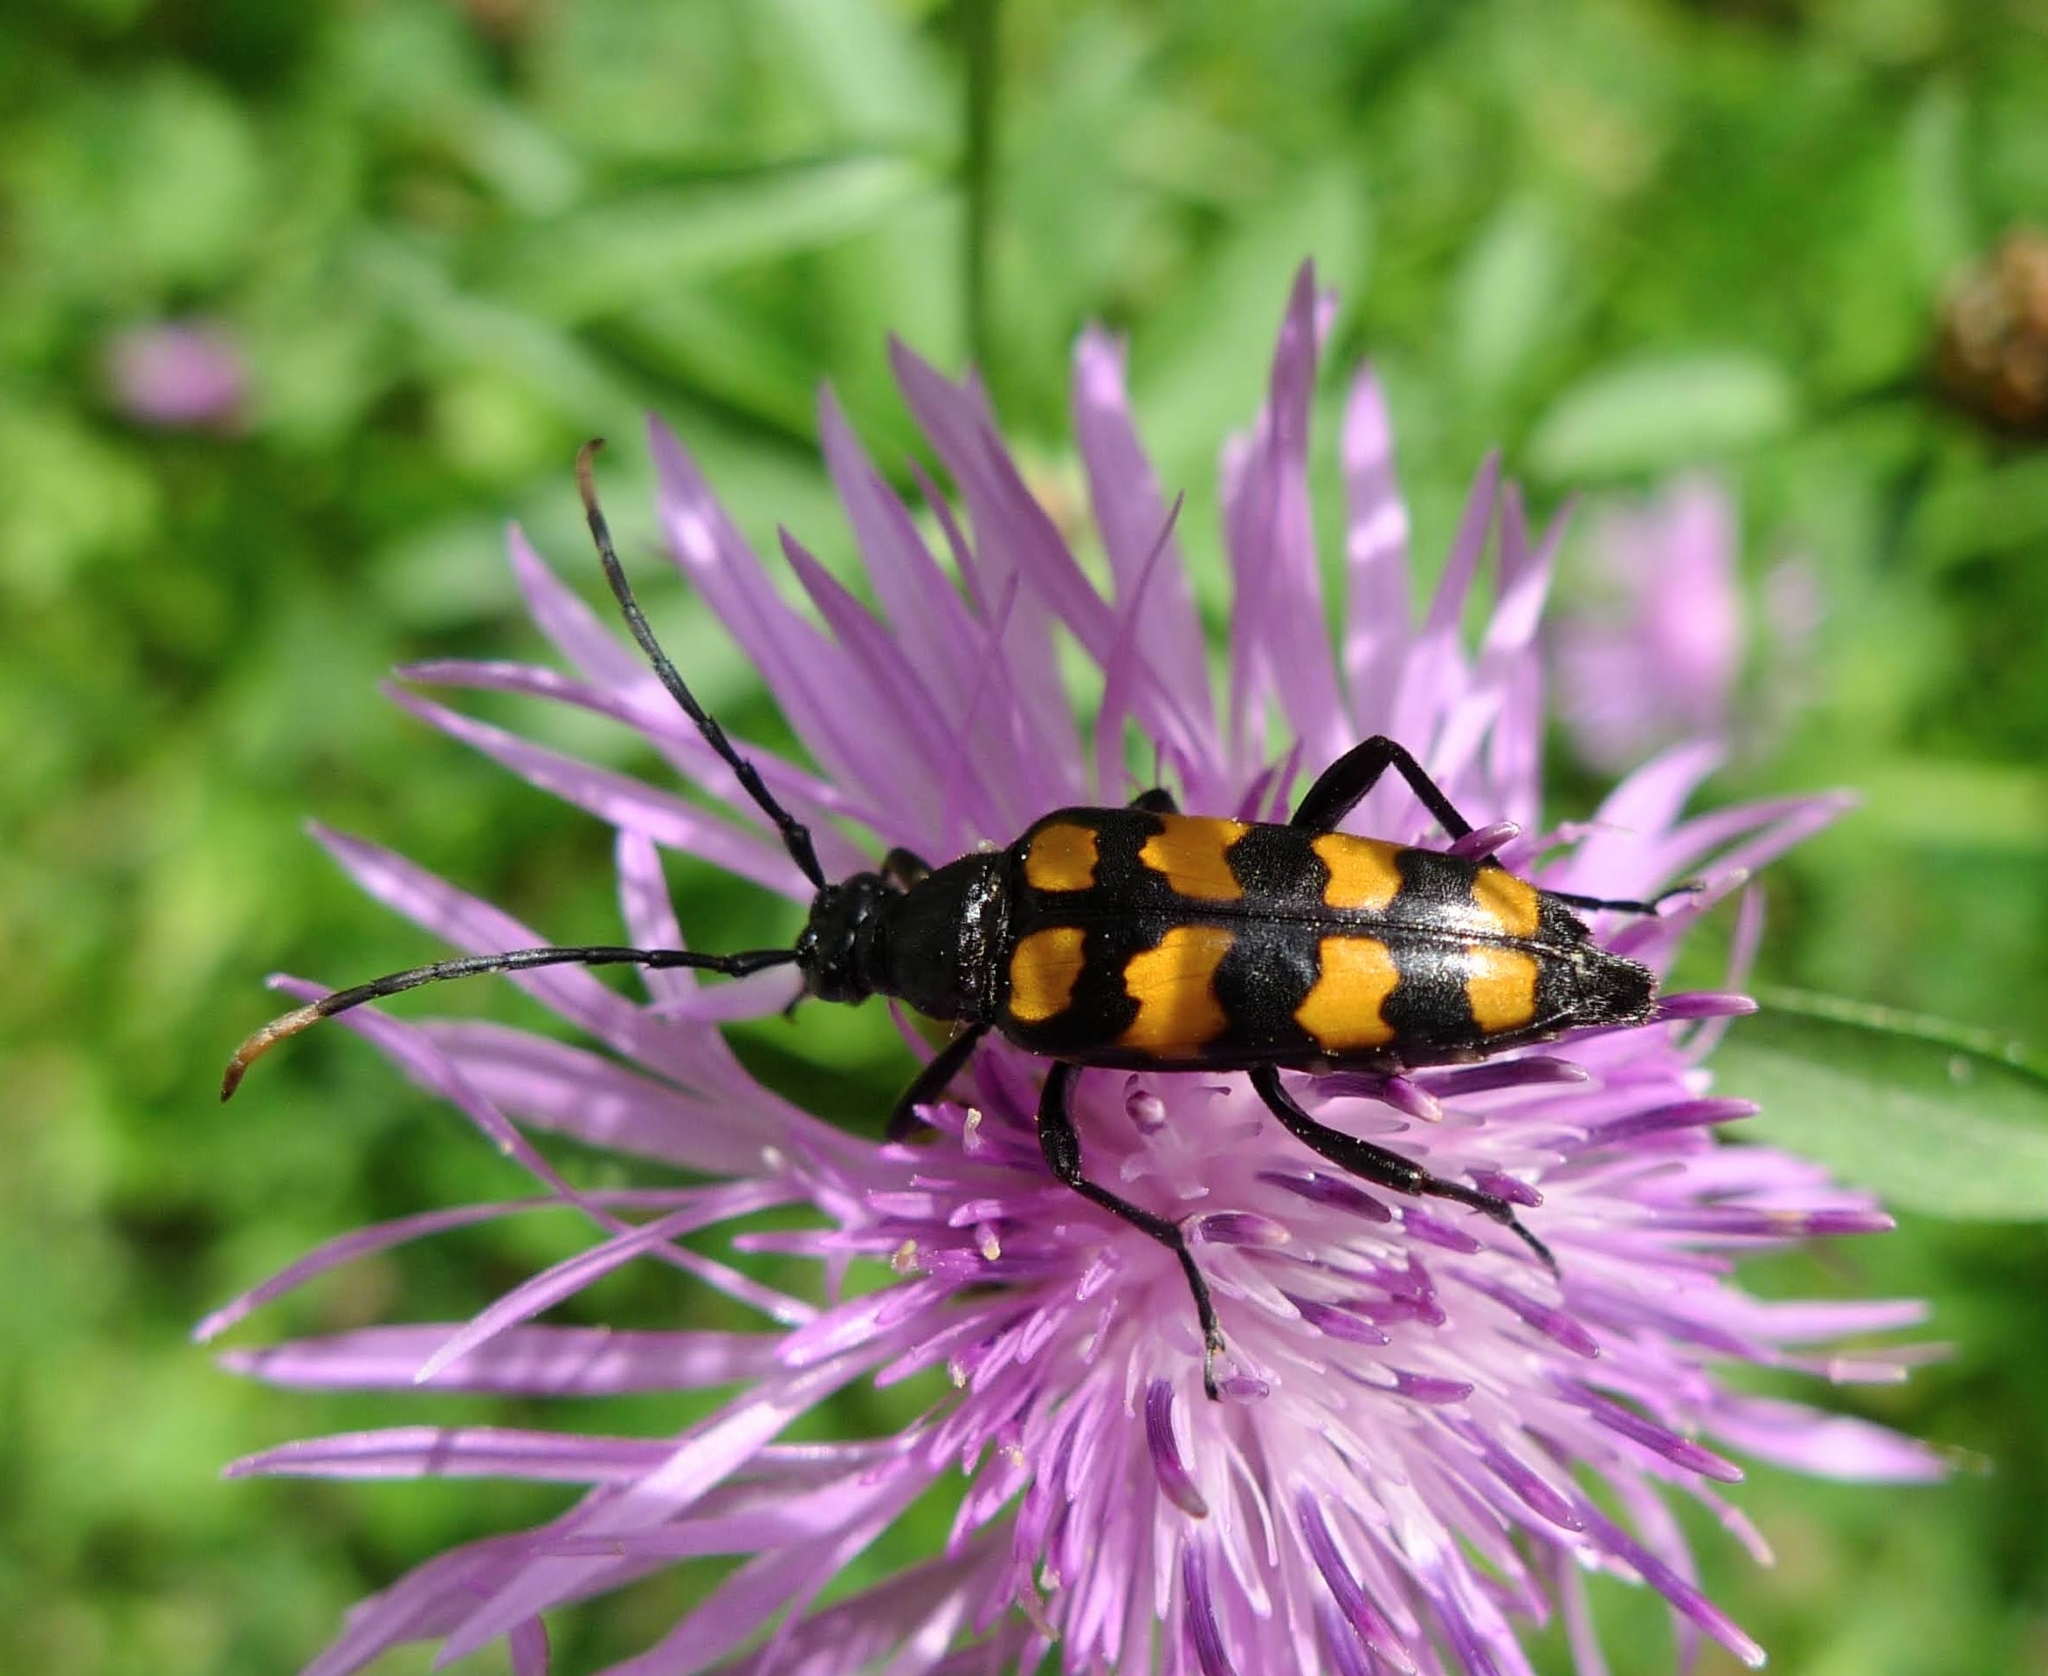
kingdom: Animalia
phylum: Arthropoda
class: Insecta
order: Coleoptera
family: Cerambycidae
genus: Leptura
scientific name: Leptura quadrifasciata
